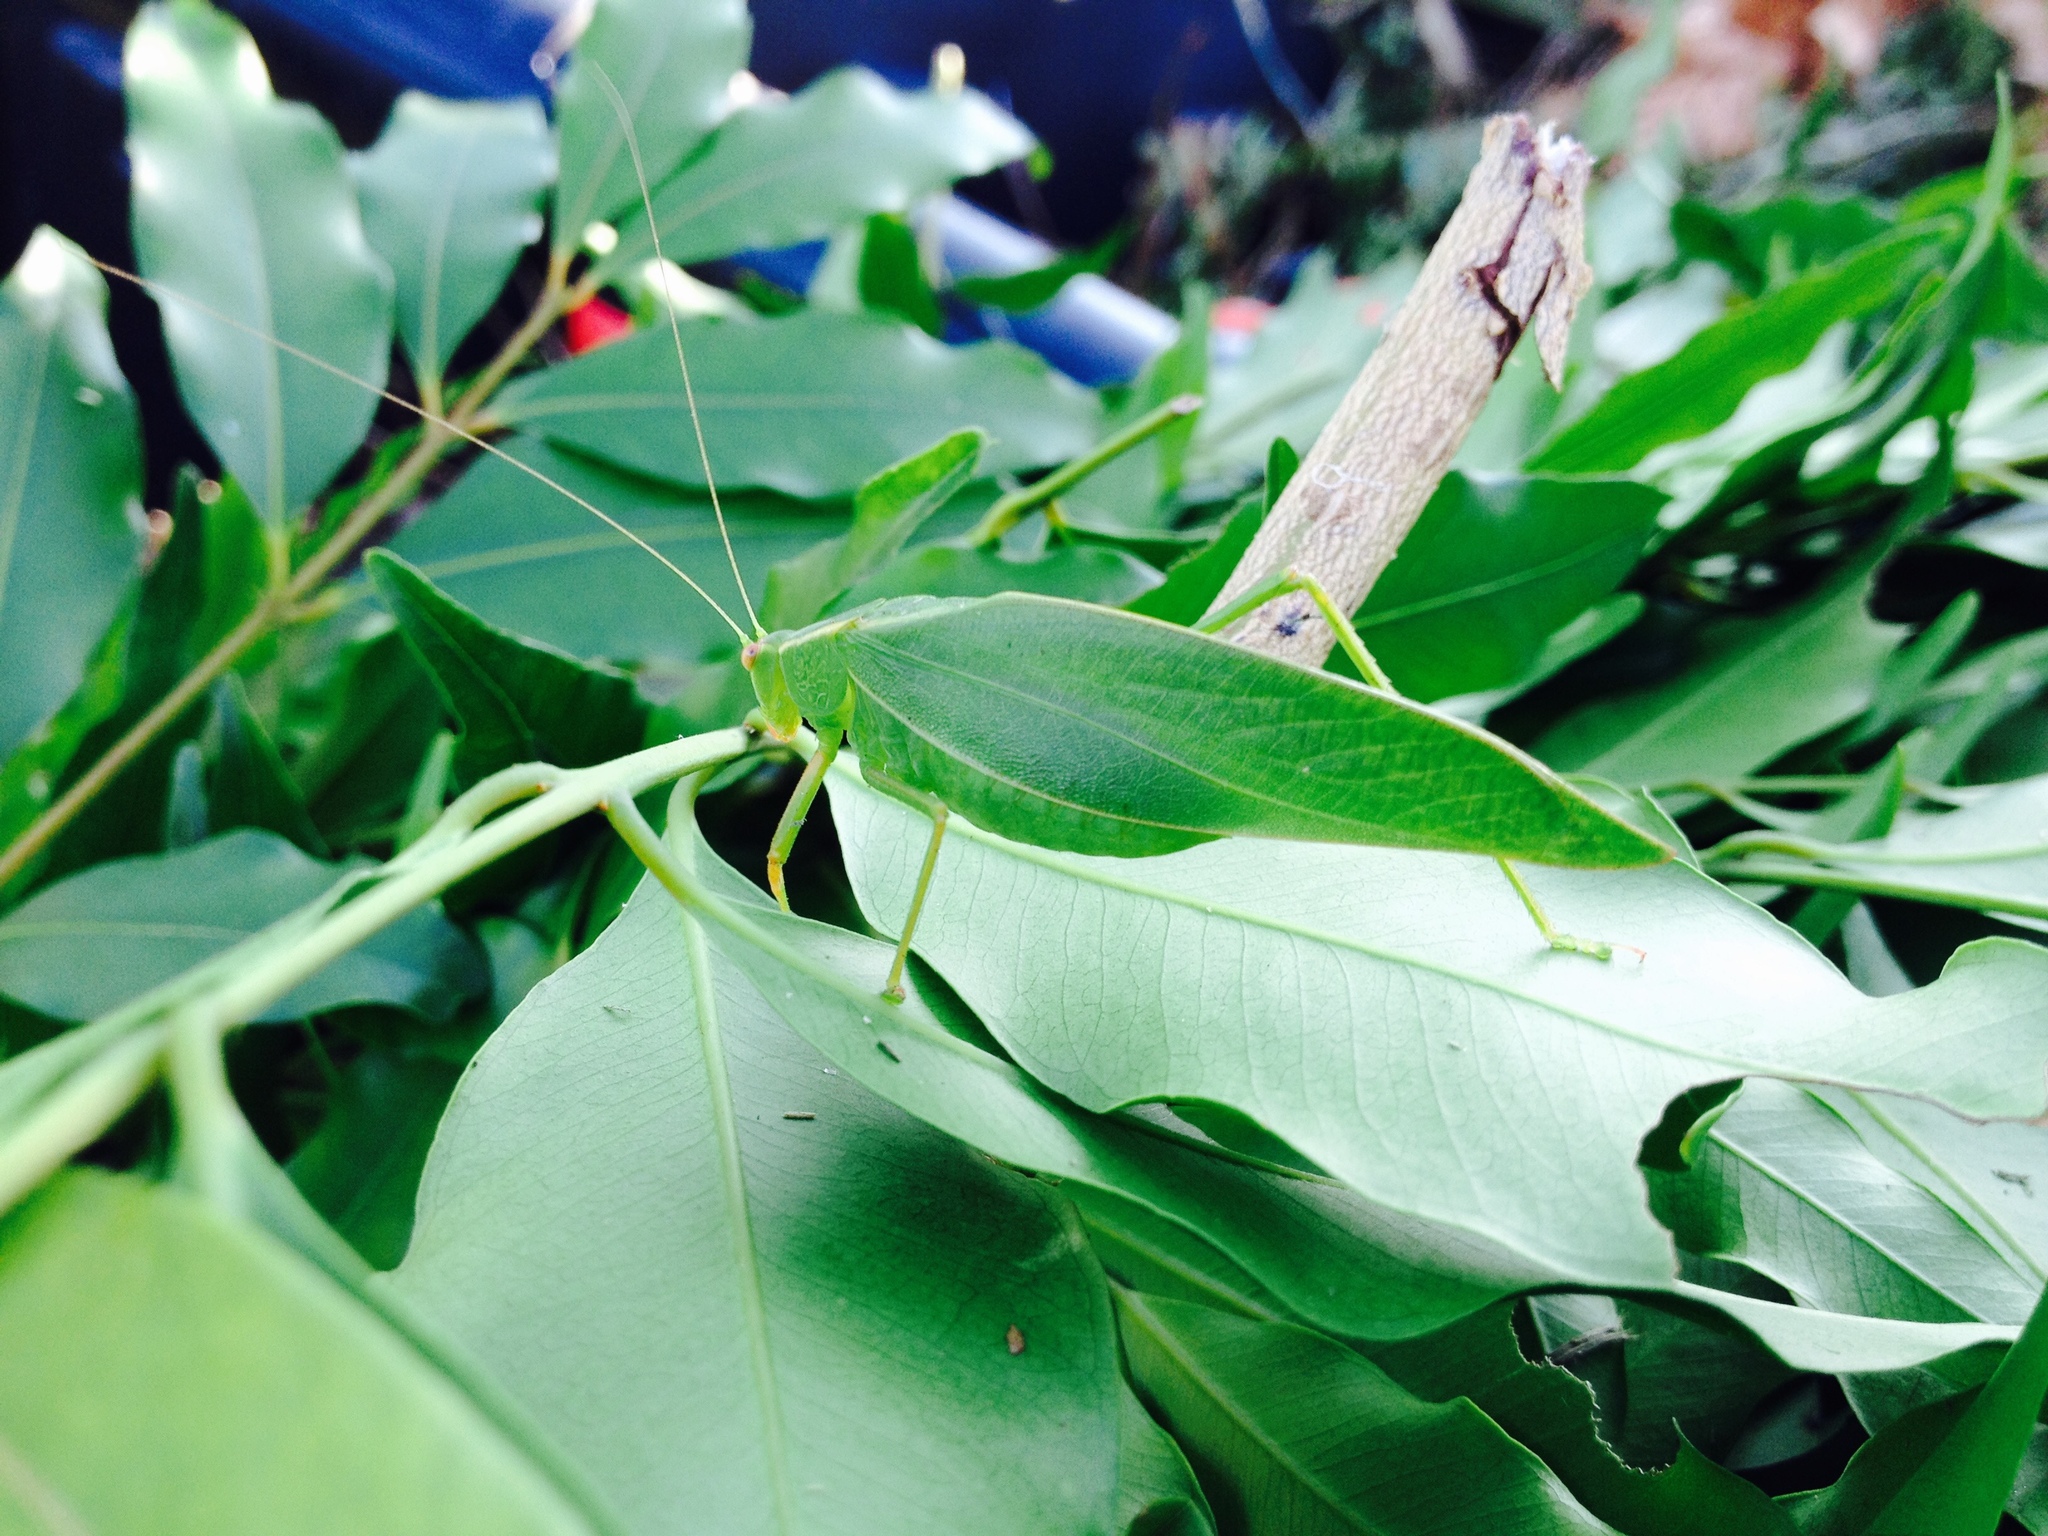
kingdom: Animalia
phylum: Arthropoda
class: Insecta
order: Orthoptera
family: Tettigoniidae
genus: Caedicia
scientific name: Caedicia simplex
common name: Common garden katydid
